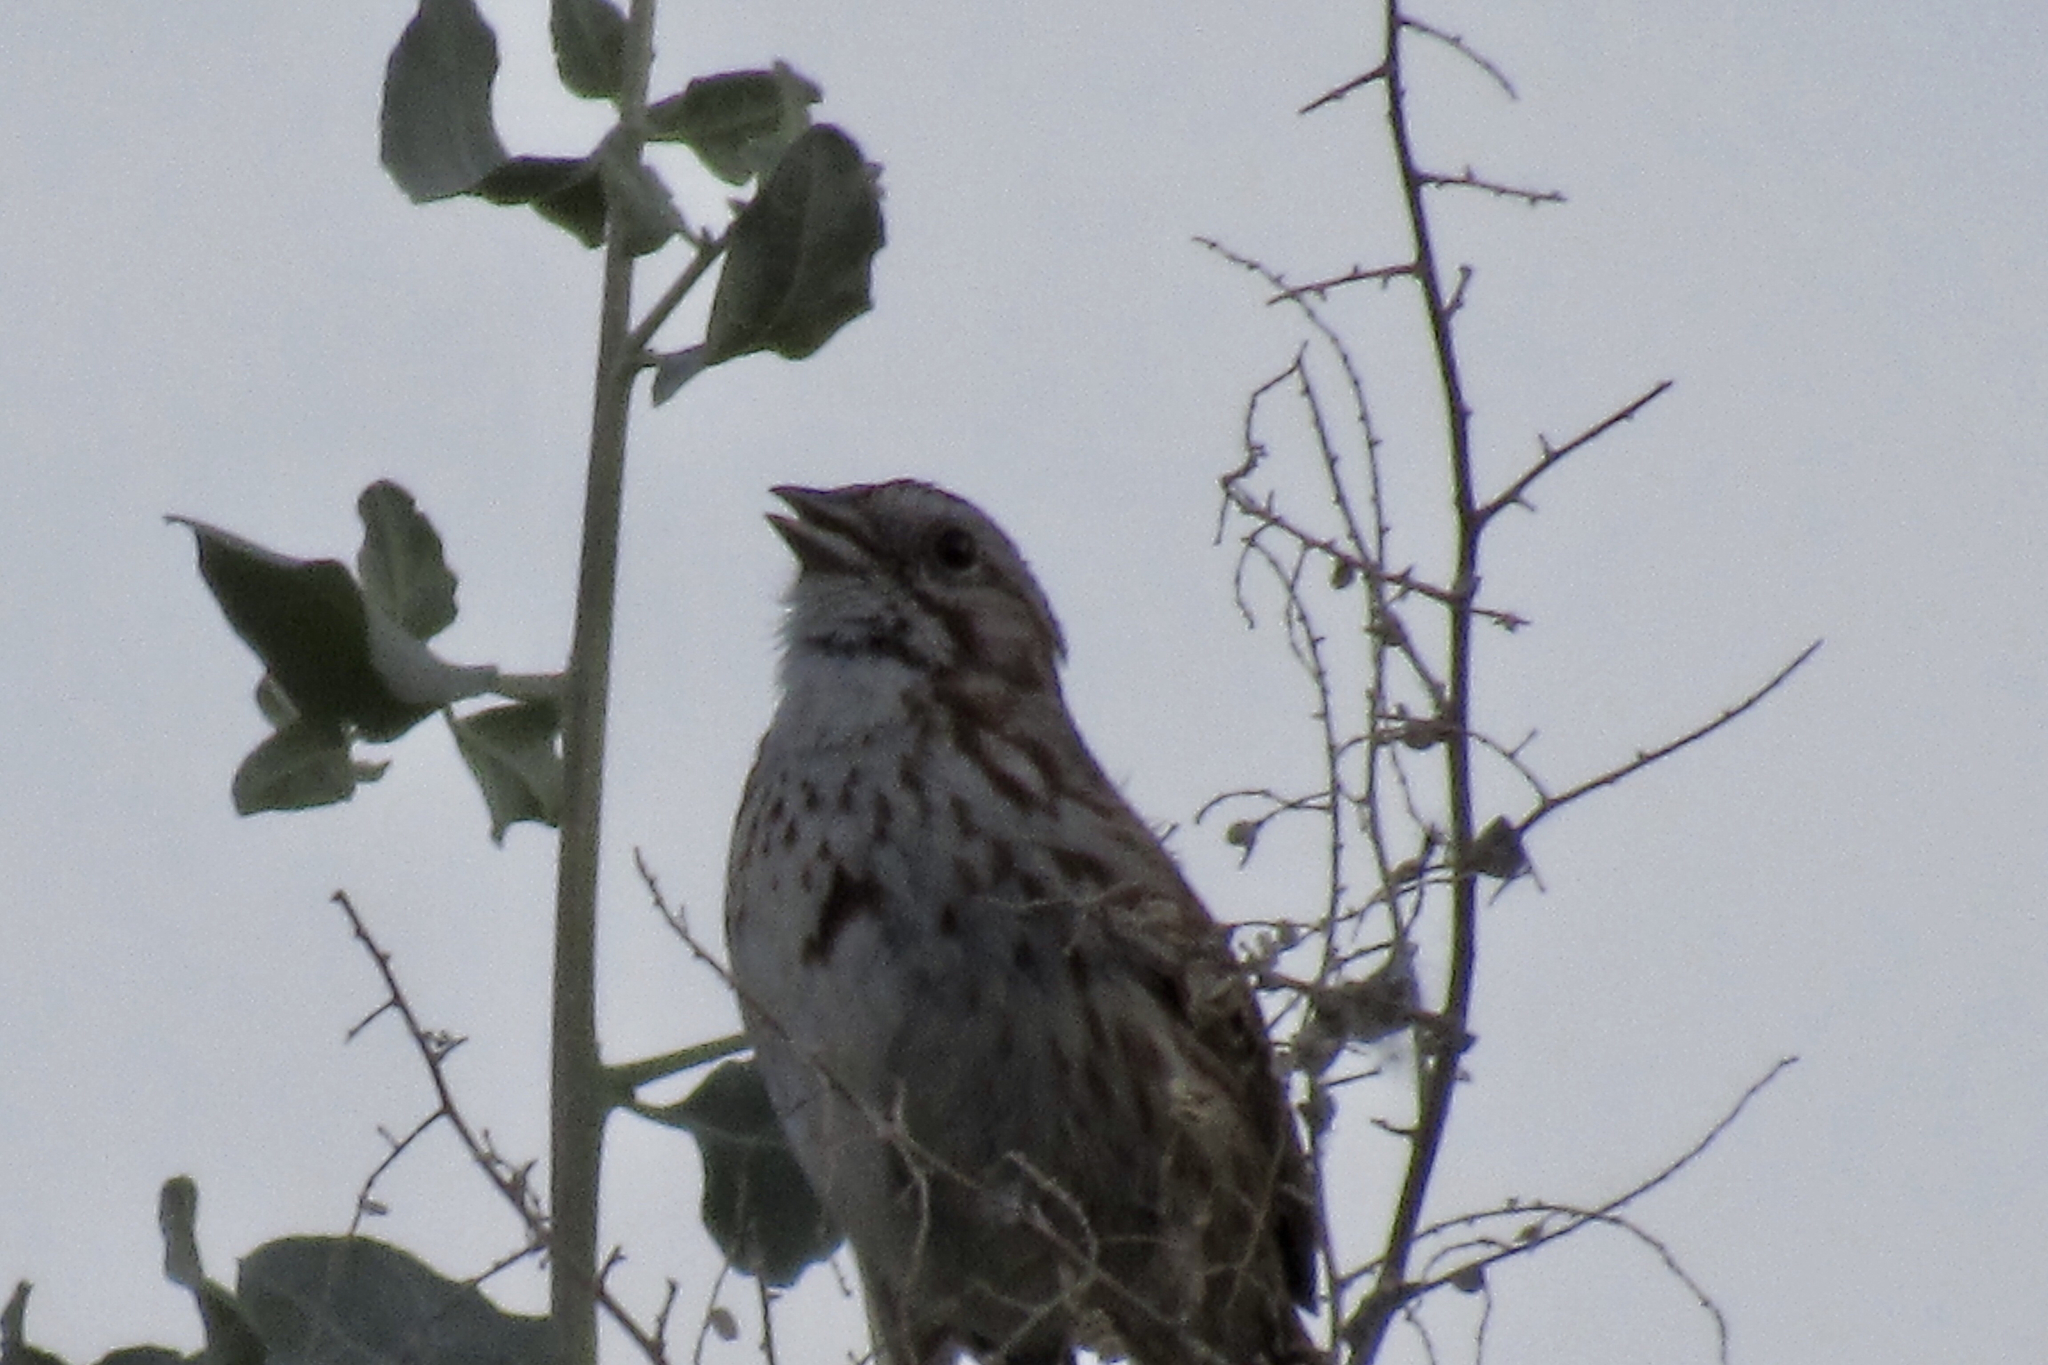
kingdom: Animalia
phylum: Chordata
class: Aves
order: Passeriformes
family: Passerellidae
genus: Melospiza
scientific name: Melospiza melodia
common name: Song sparrow
